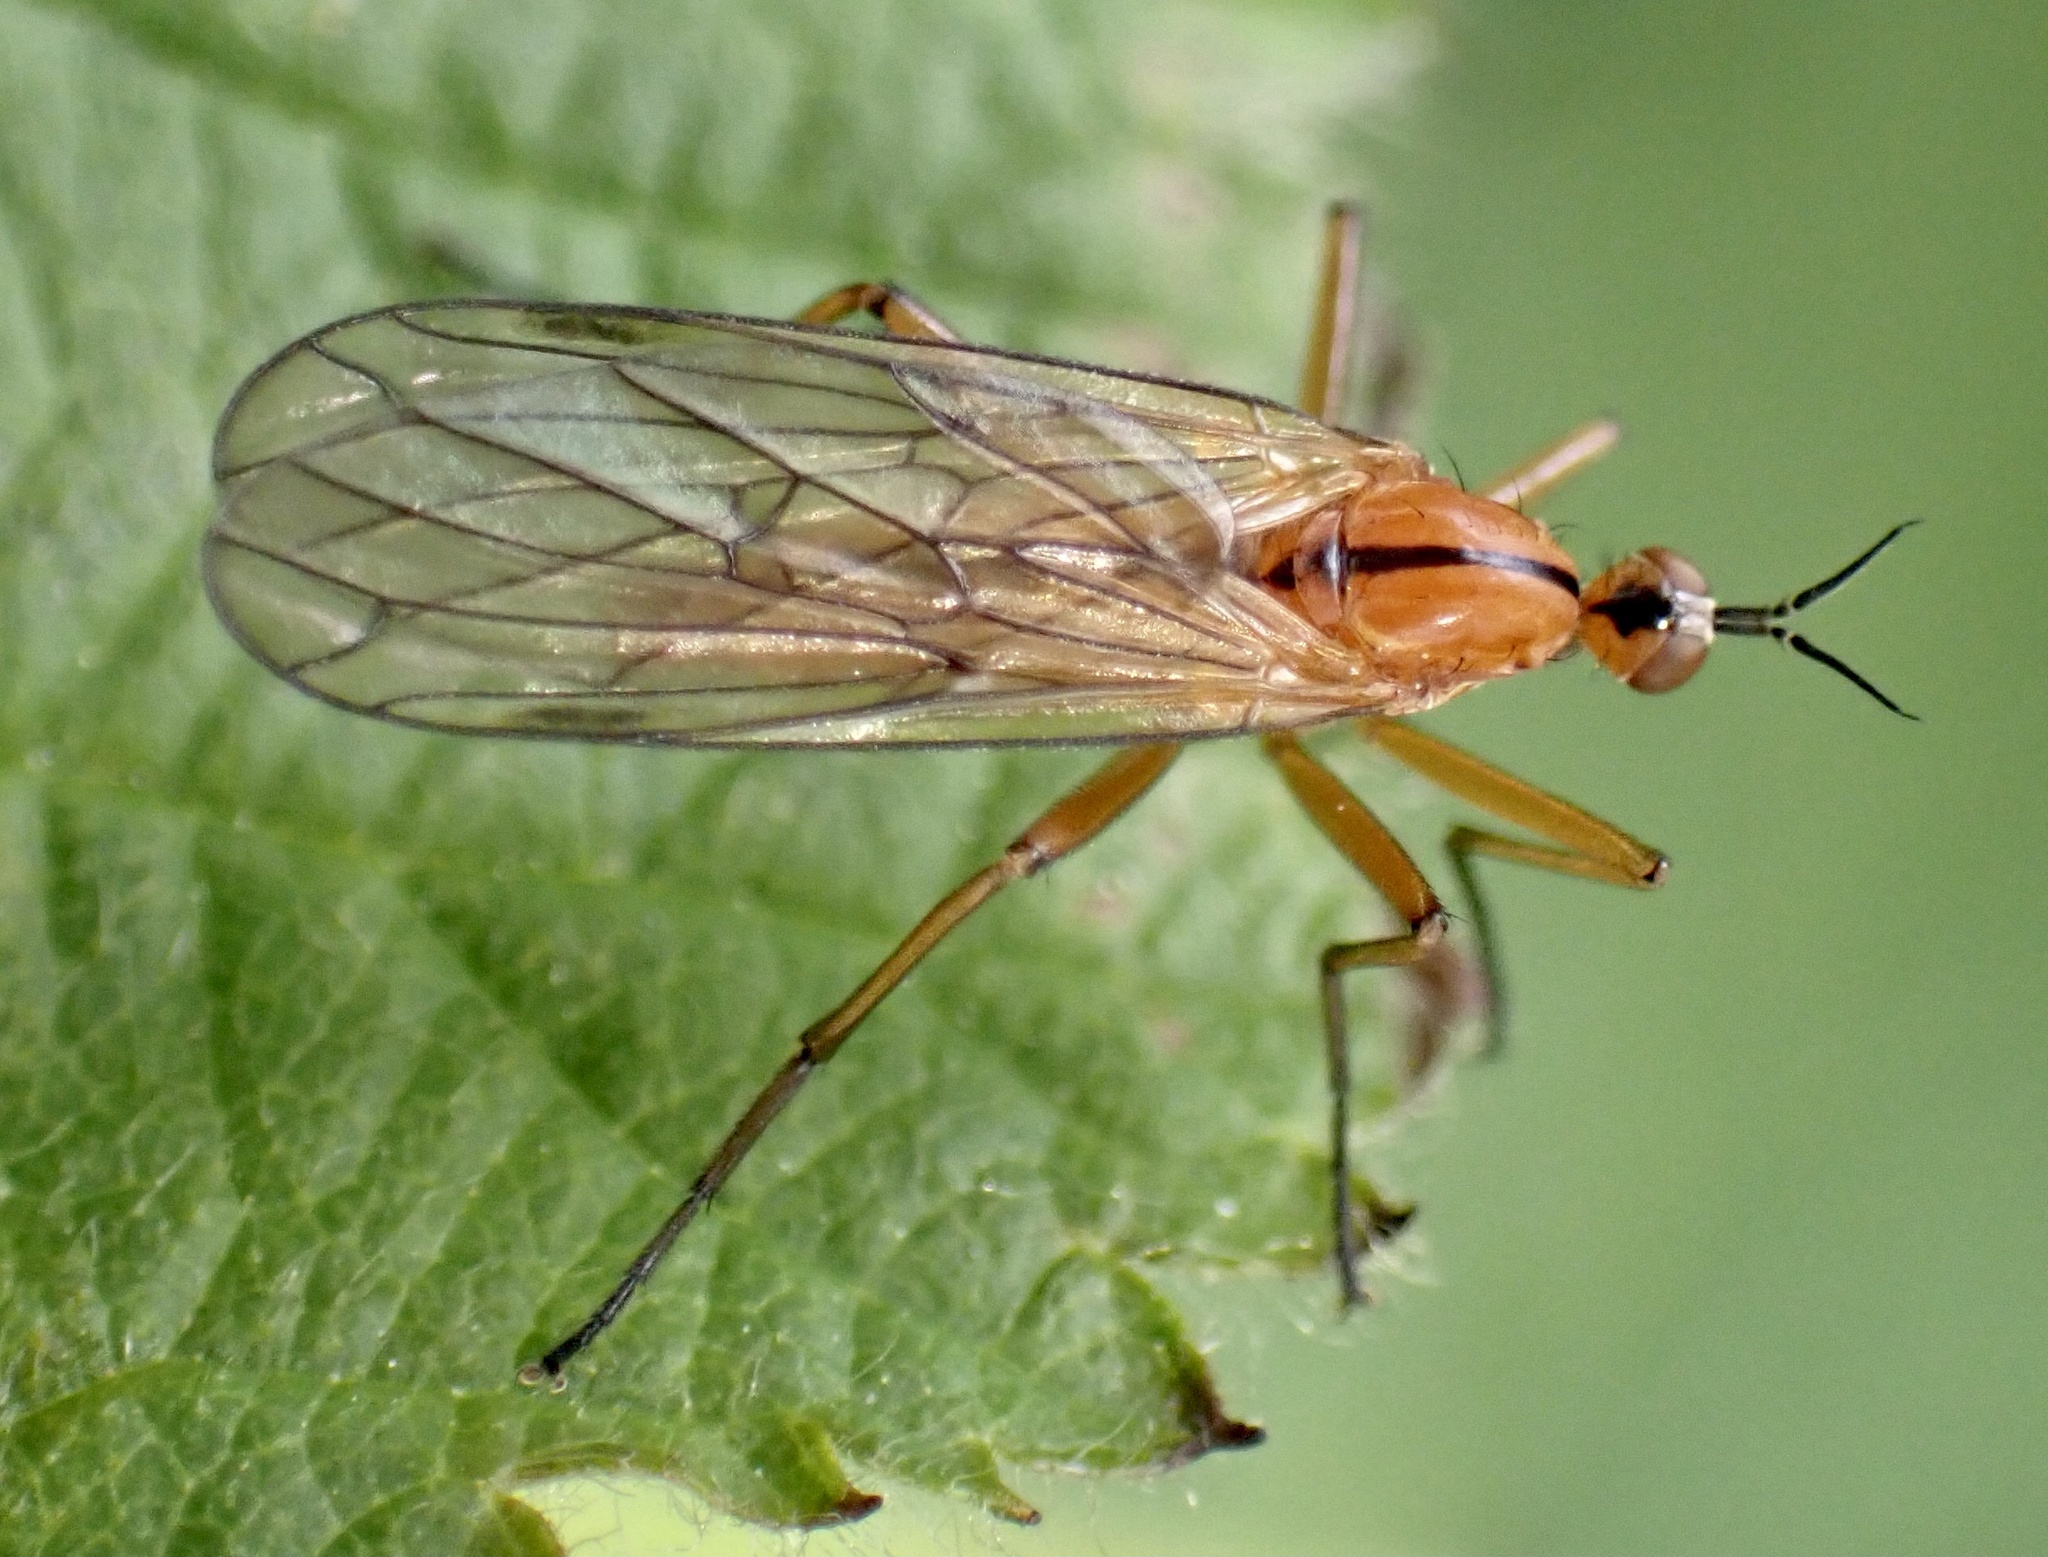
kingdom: Animalia
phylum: Arthropoda
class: Insecta
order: Diptera
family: Empididae
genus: Empis
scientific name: Empis stercorea
